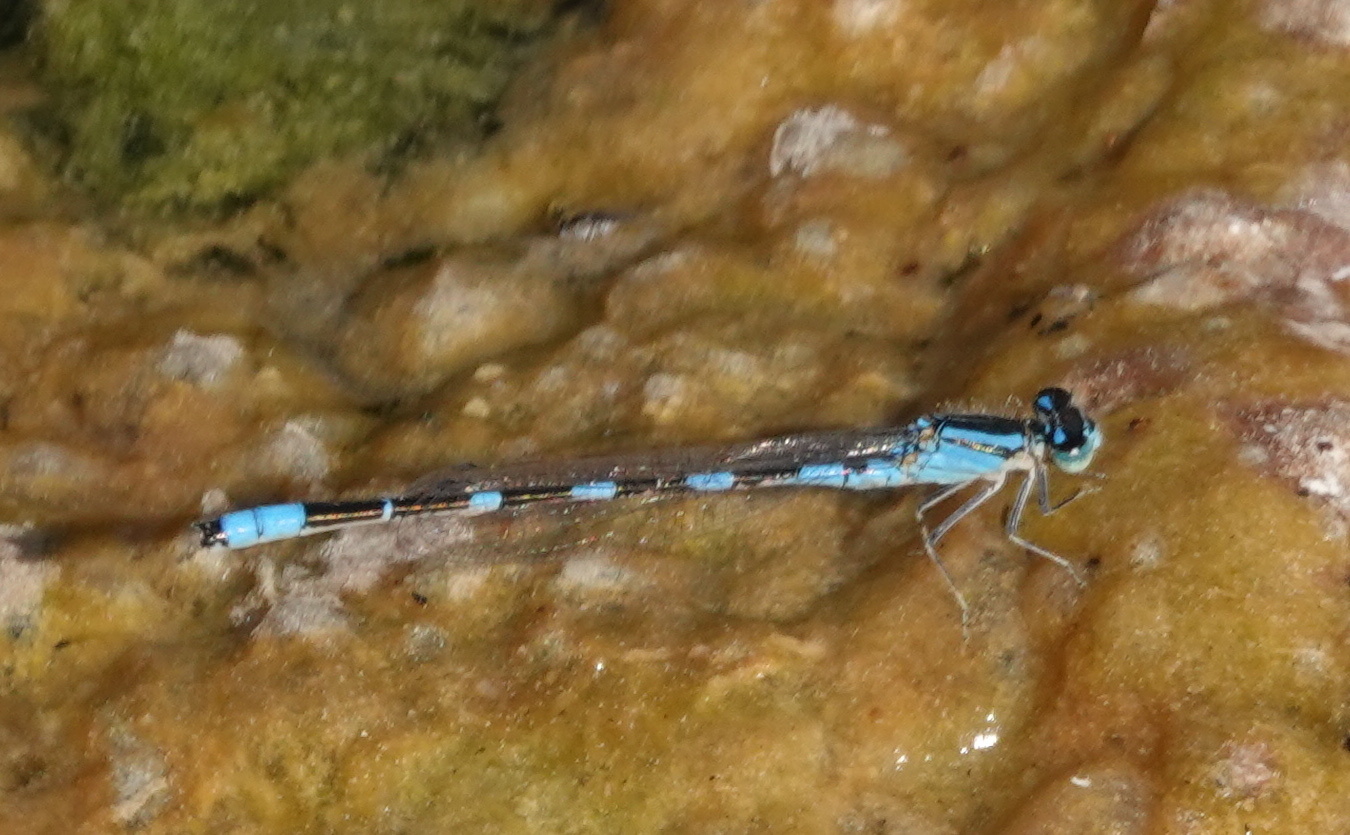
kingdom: Animalia
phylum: Arthropoda
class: Insecta
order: Odonata
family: Coenagrionidae
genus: Enallagma
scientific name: Enallagma carunculatum
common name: Tule bluet
